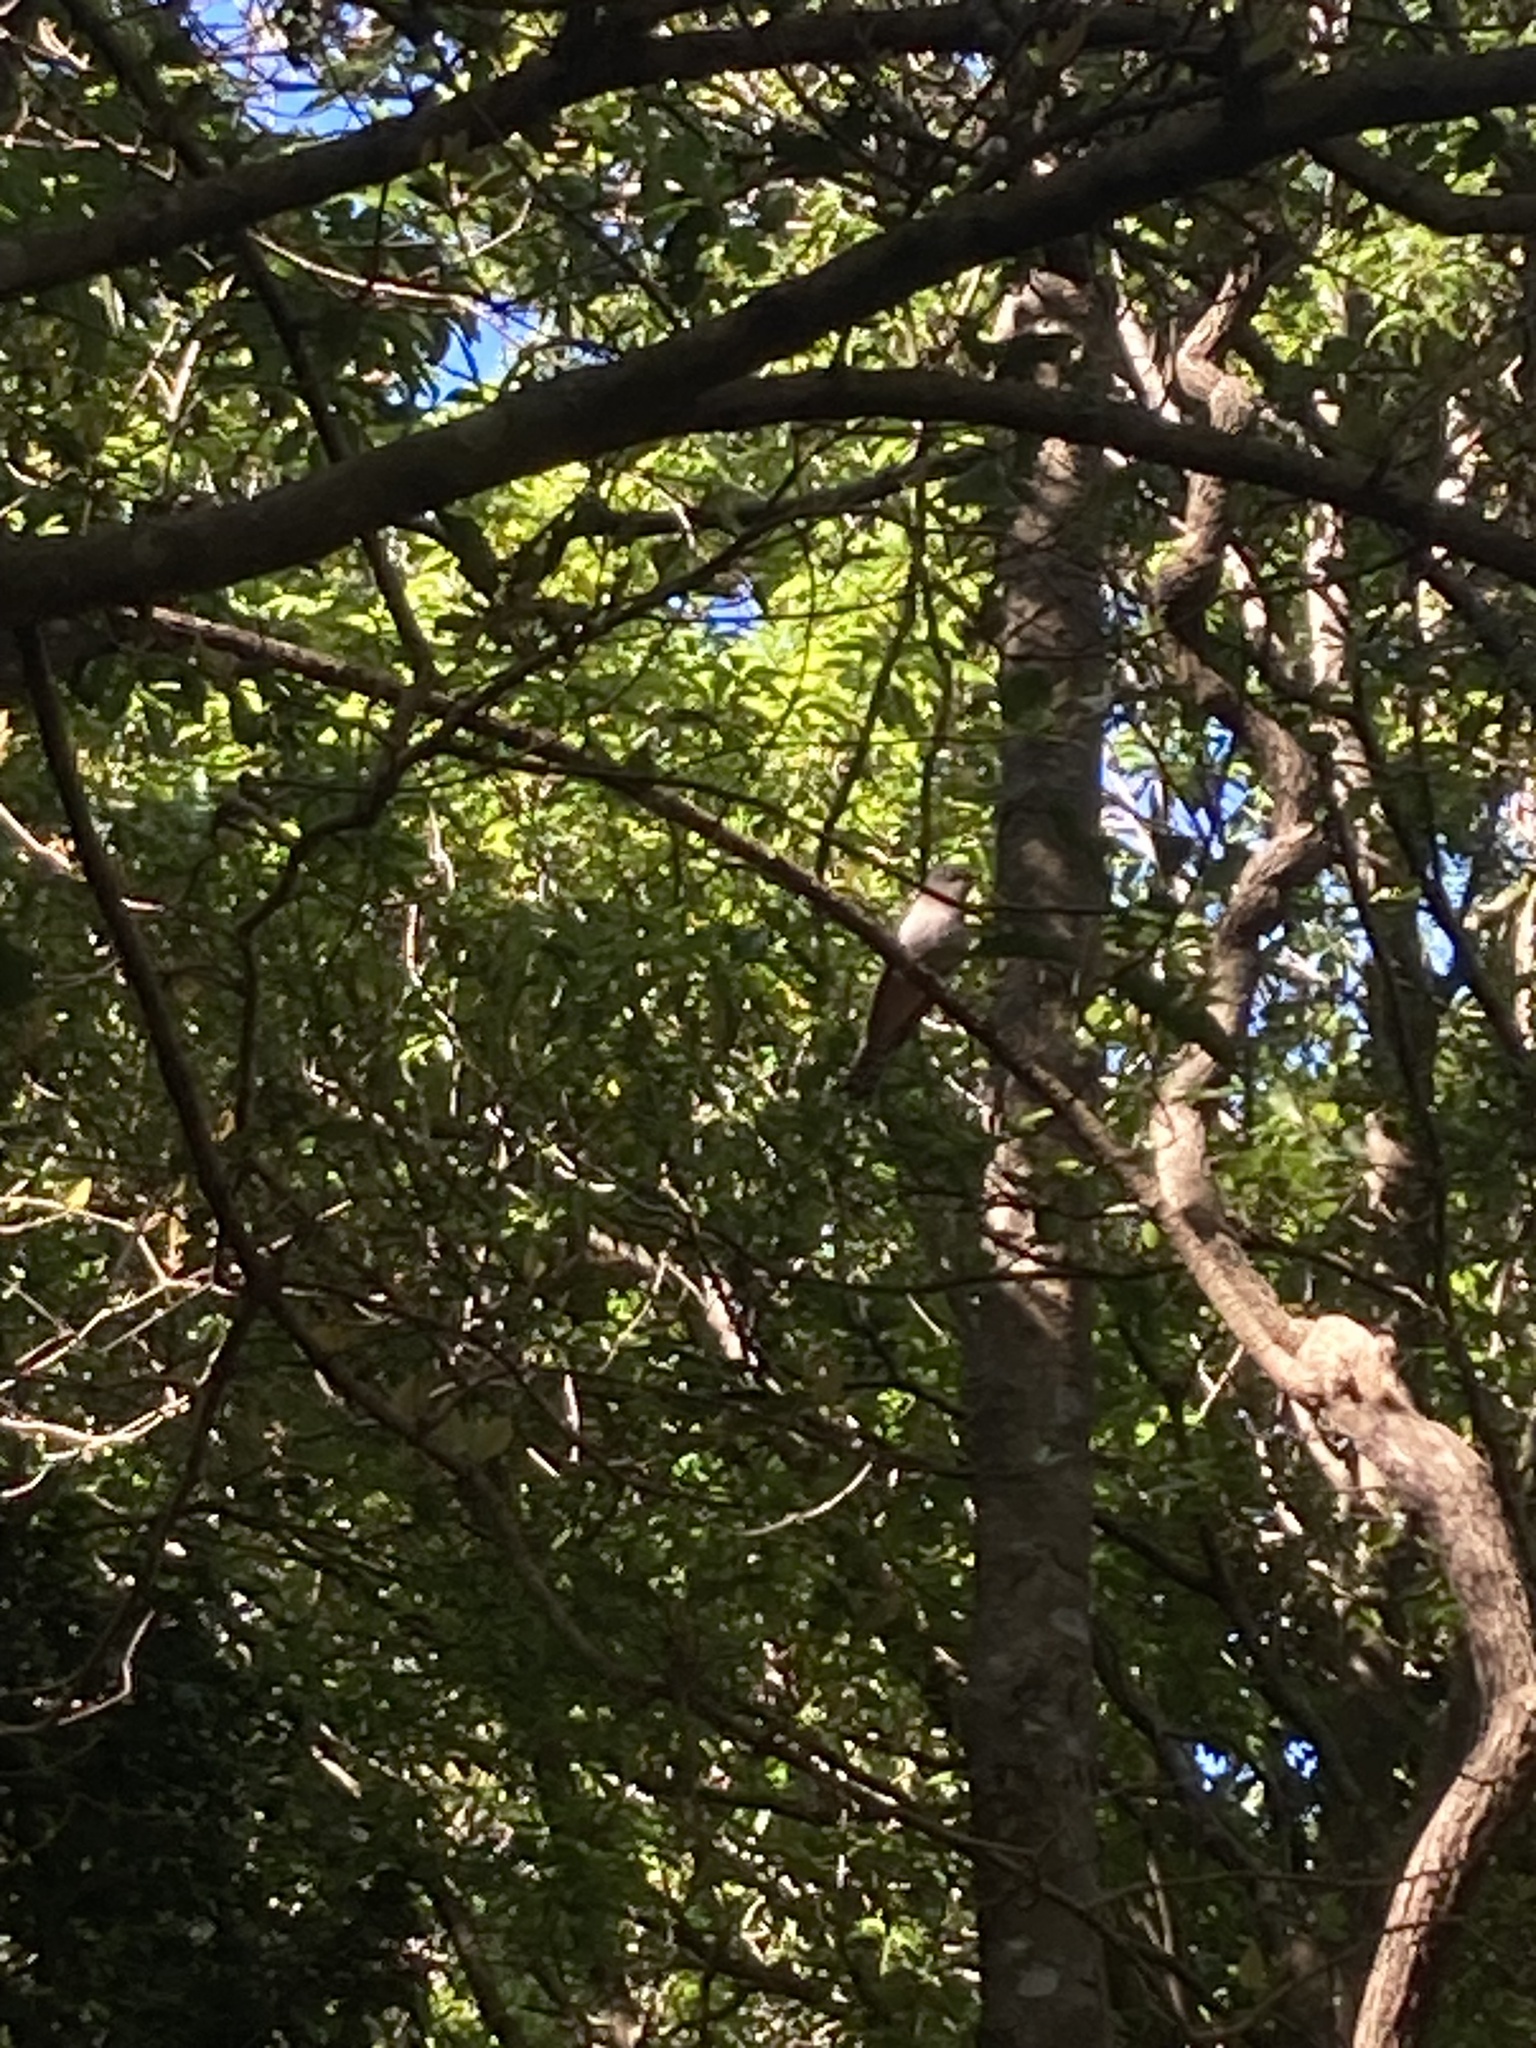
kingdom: Animalia
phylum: Chordata
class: Aves
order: Cuculiformes
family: Cuculidae
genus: Cacomantis
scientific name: Cacomantis flabelliformis
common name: Fan-tailed cuckoo
